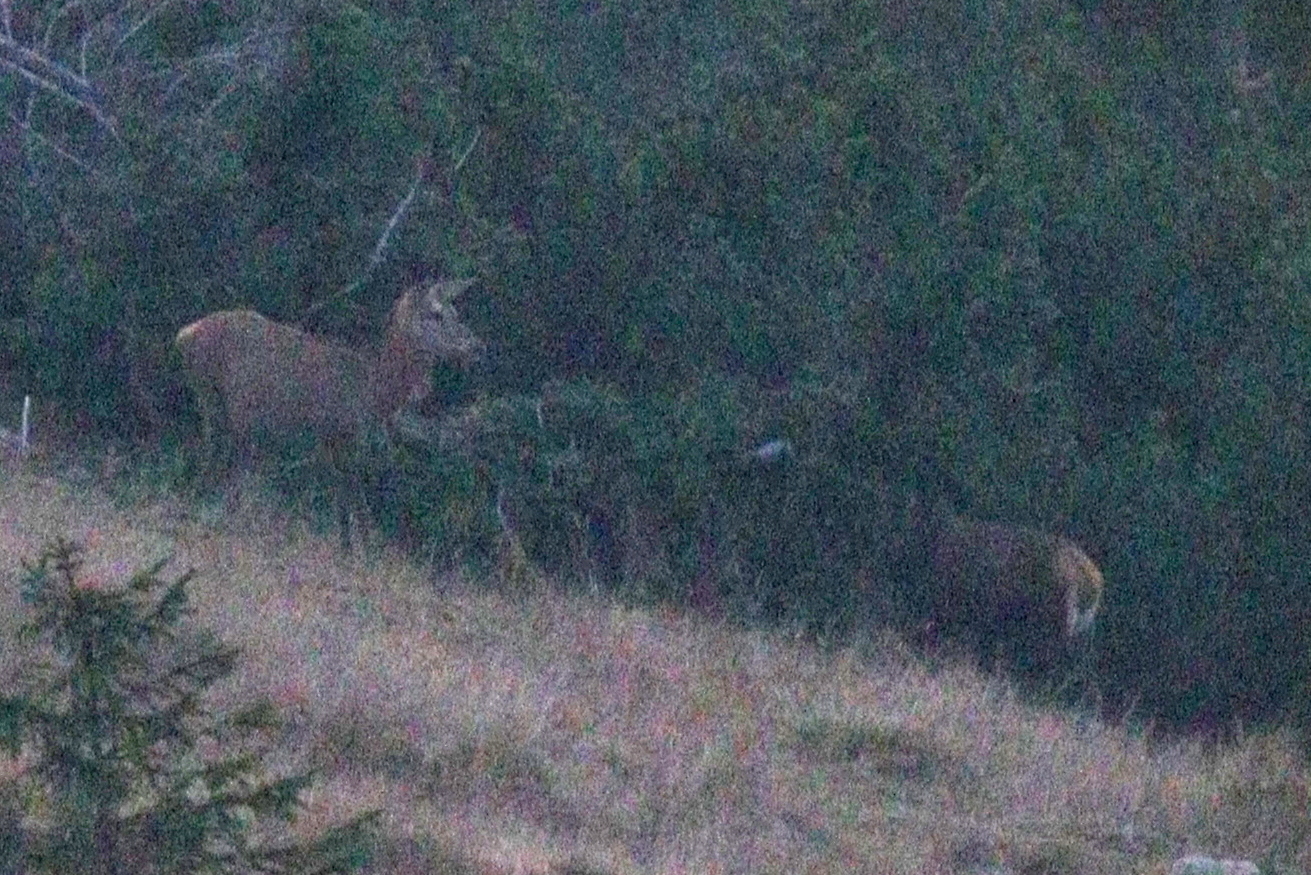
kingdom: Animalia
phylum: Chordata
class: Mammalia
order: Artiodactyla
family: Cervidae
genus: Cervus
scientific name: Cervus elaphus
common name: Red deer
